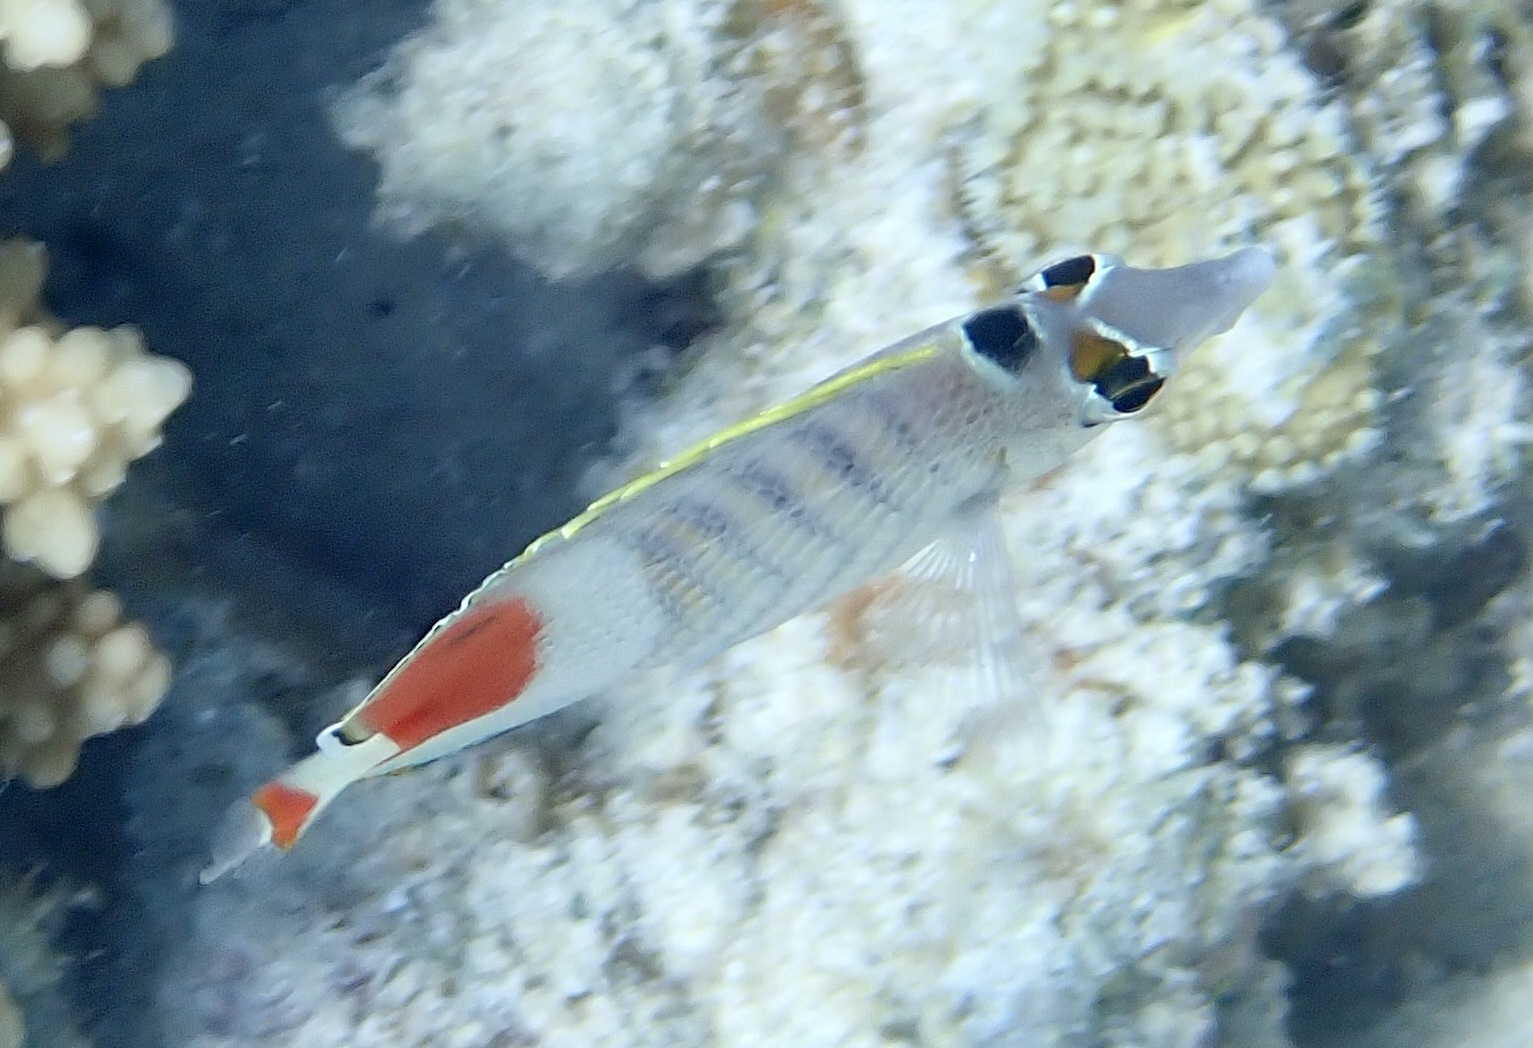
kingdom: Animalia
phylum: Chordata
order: Perciformes
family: Chaetodontidae
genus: Chaetodon
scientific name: Chaetodon paucifasciatus
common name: Crown butterflyfish
